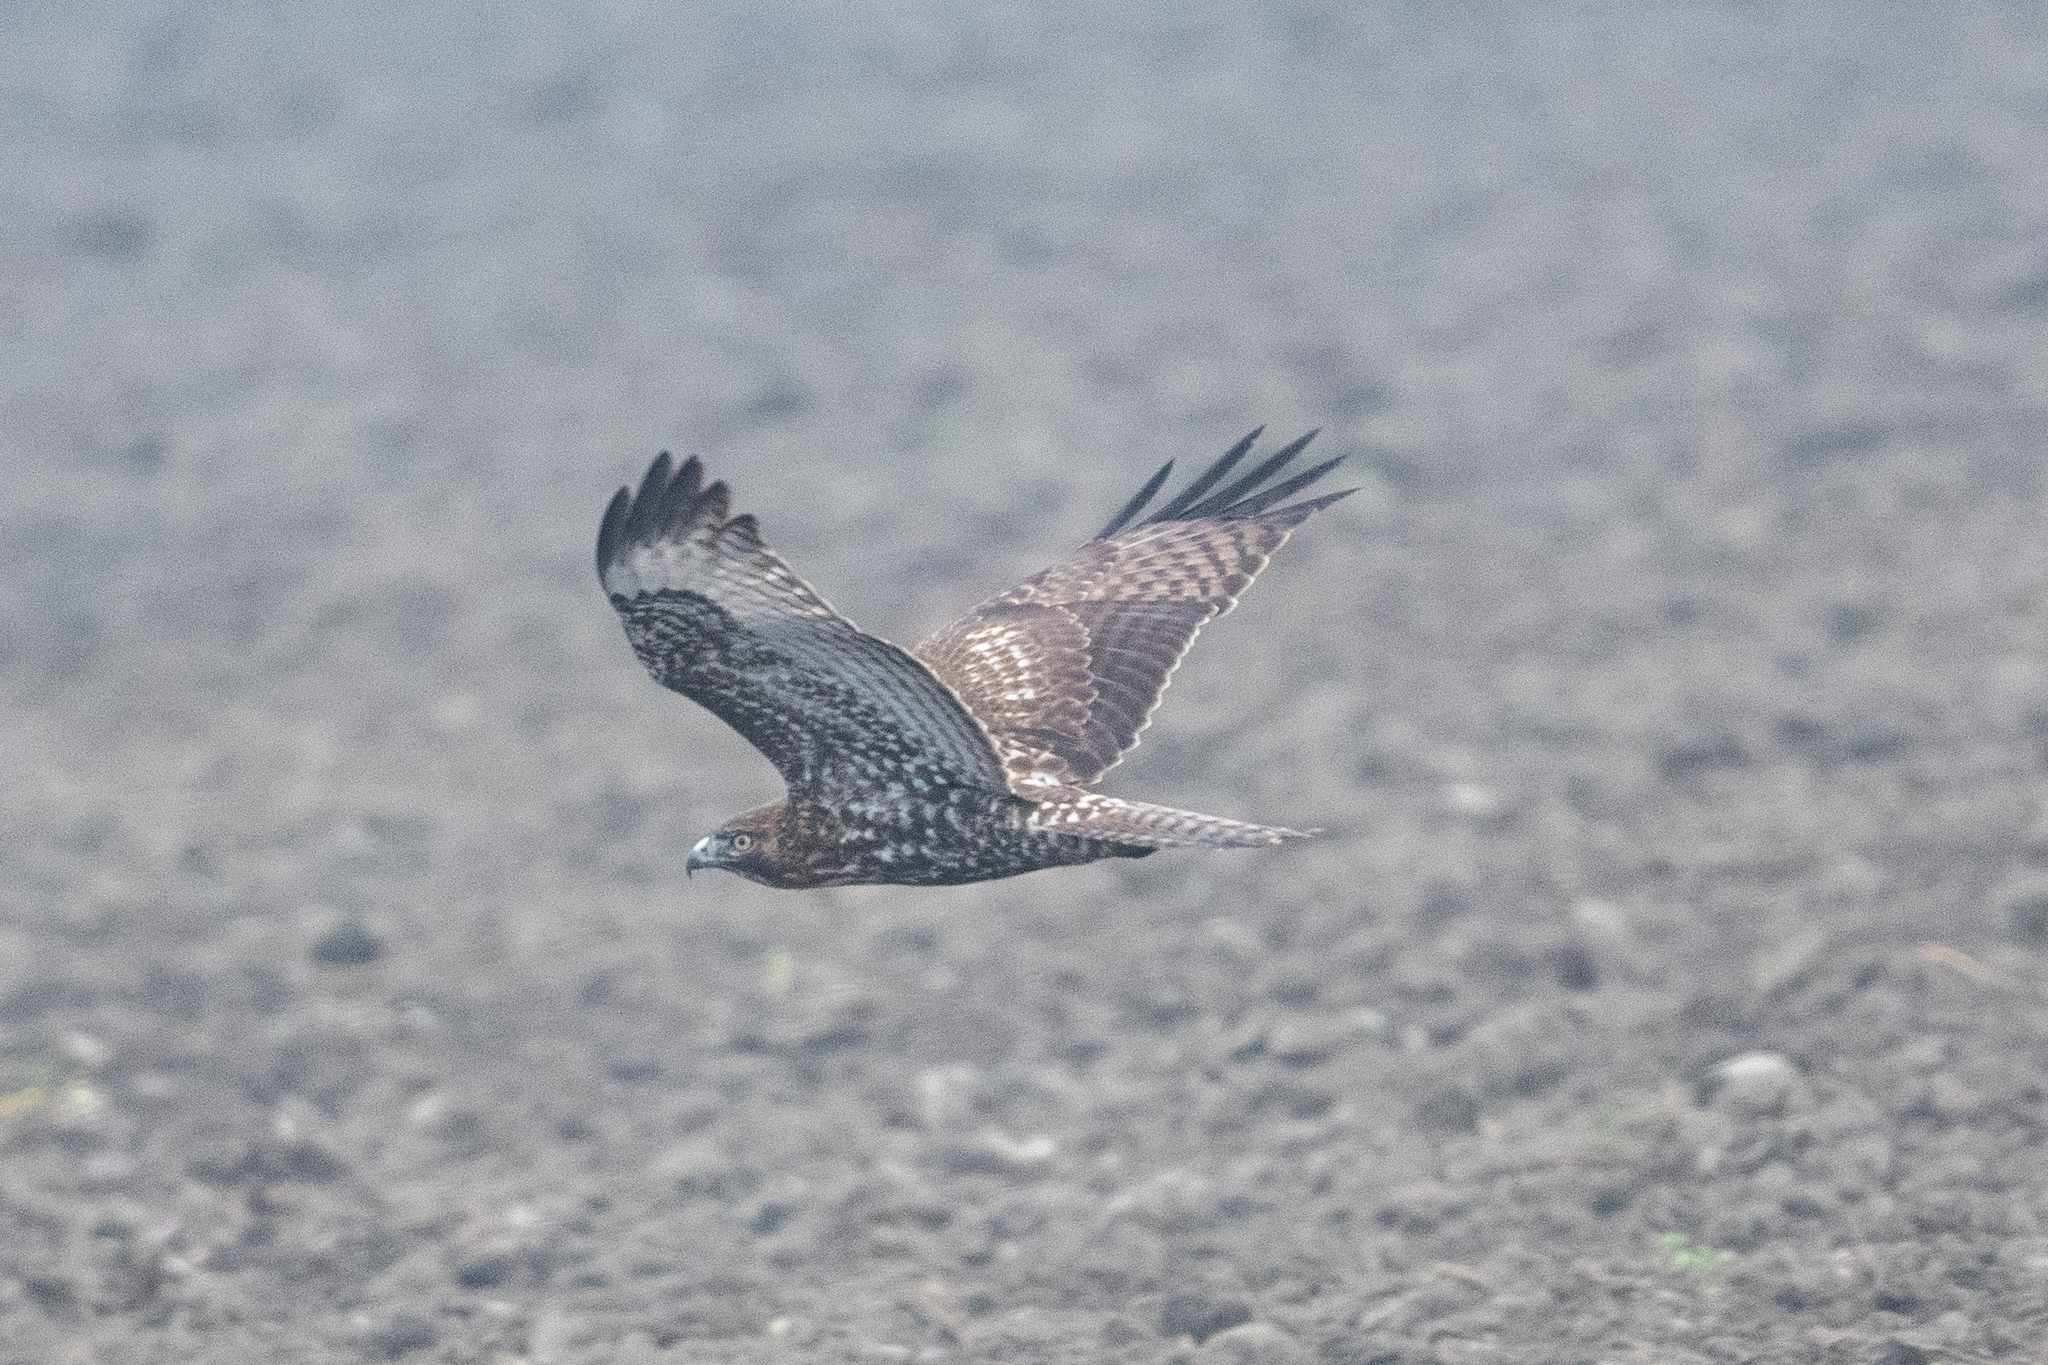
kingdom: Animalia
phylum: Chordata
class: Aves
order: Accipitriformes
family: Accipitridae
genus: Buteo
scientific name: Buteo jamaicensis
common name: Red-tailed hawk
